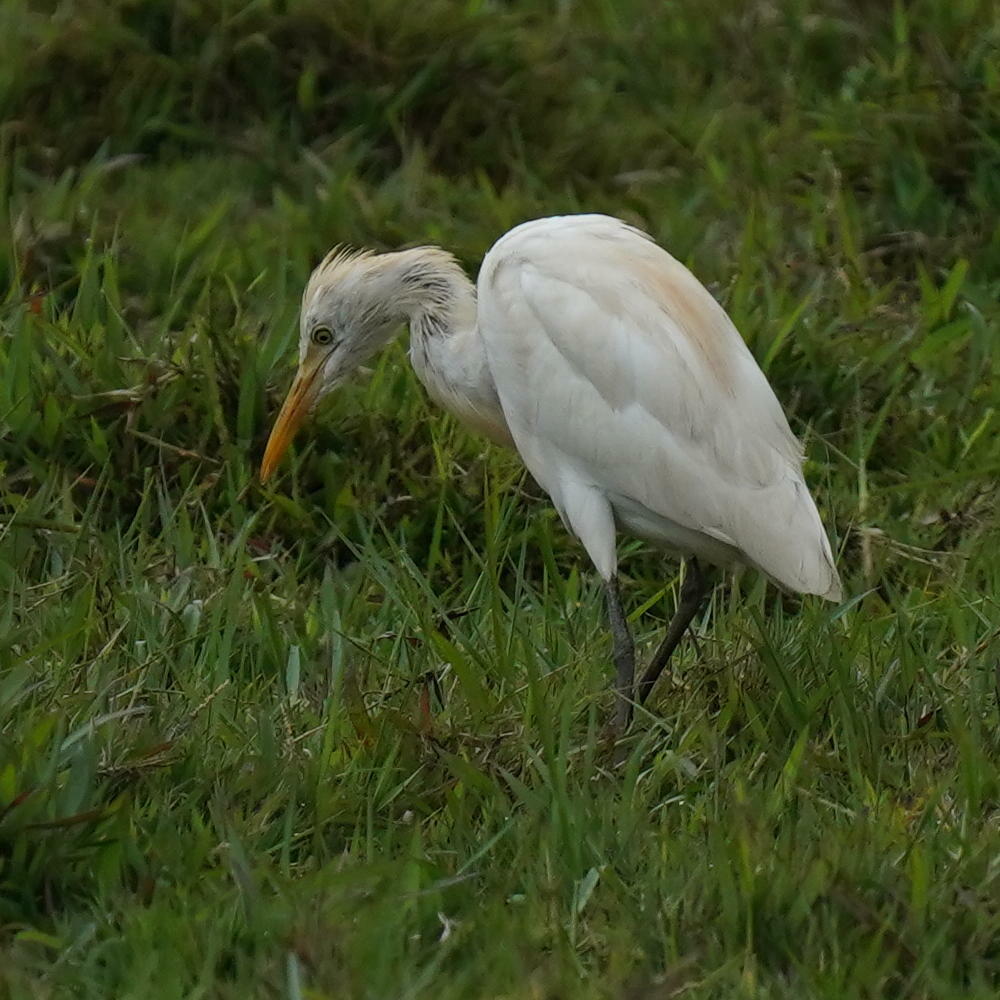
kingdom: Animalia
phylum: Chordata
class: Aves
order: Pelecaniformes
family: Ardeidae
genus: Bubulcus
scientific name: Bubulcus coromandus
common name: Eastern cattle egret
